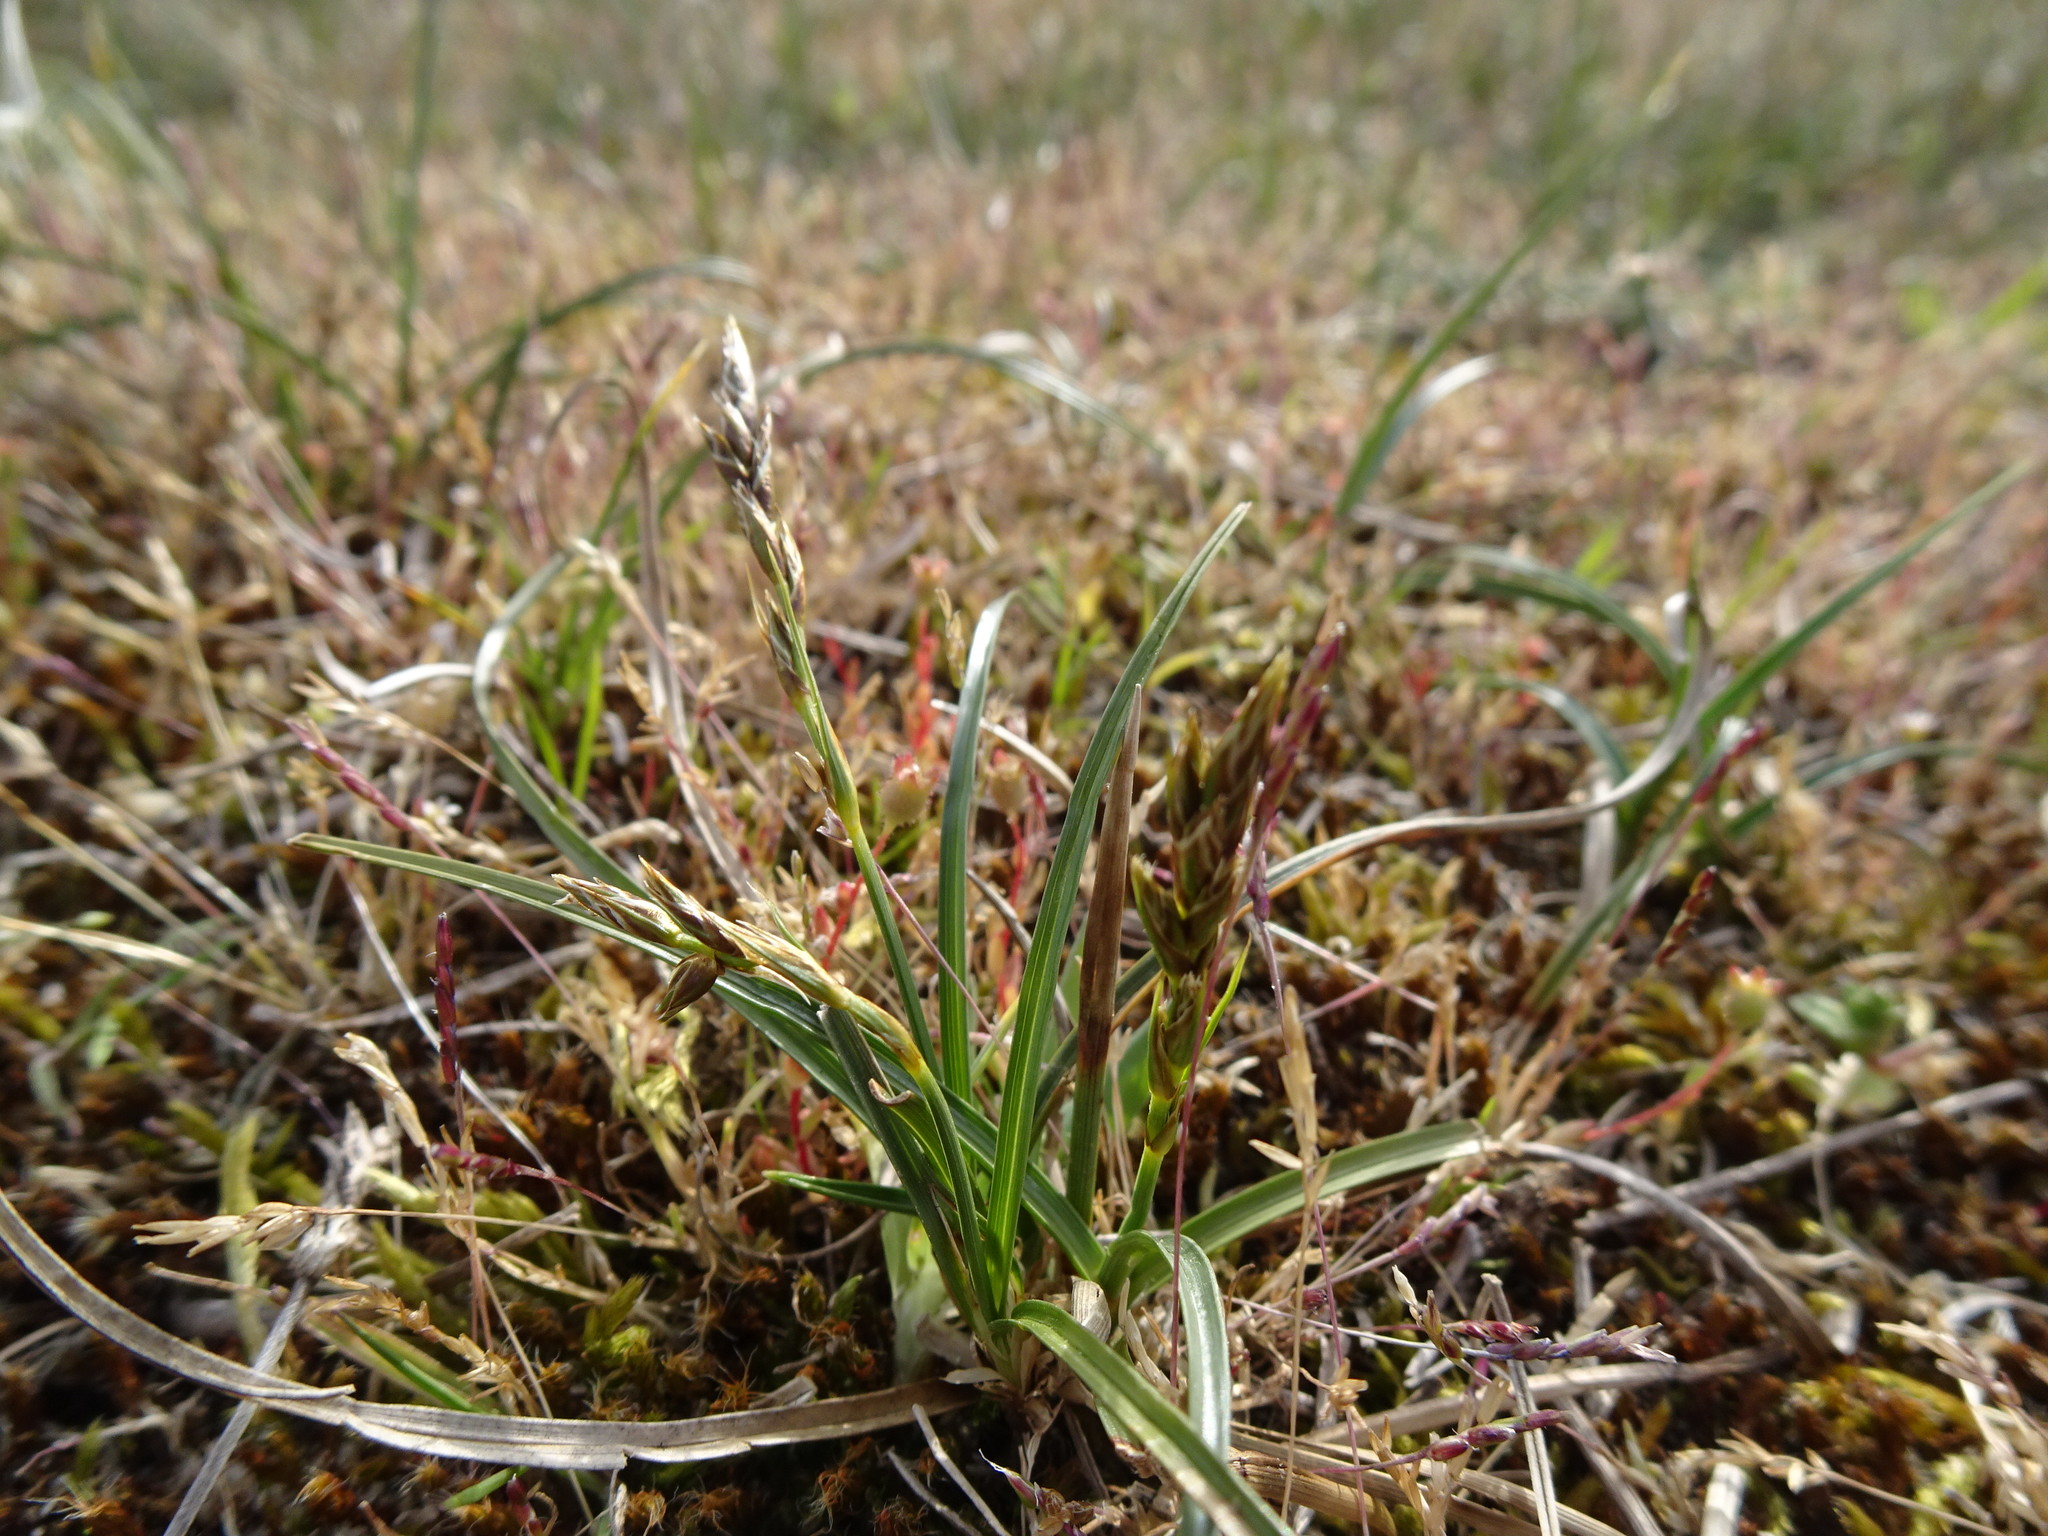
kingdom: Plantae
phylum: Tracheophyta
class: Liliopsida
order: Poales
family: Cyperaceae
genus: Carex
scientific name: Carex arenaria
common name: Sand sedge
